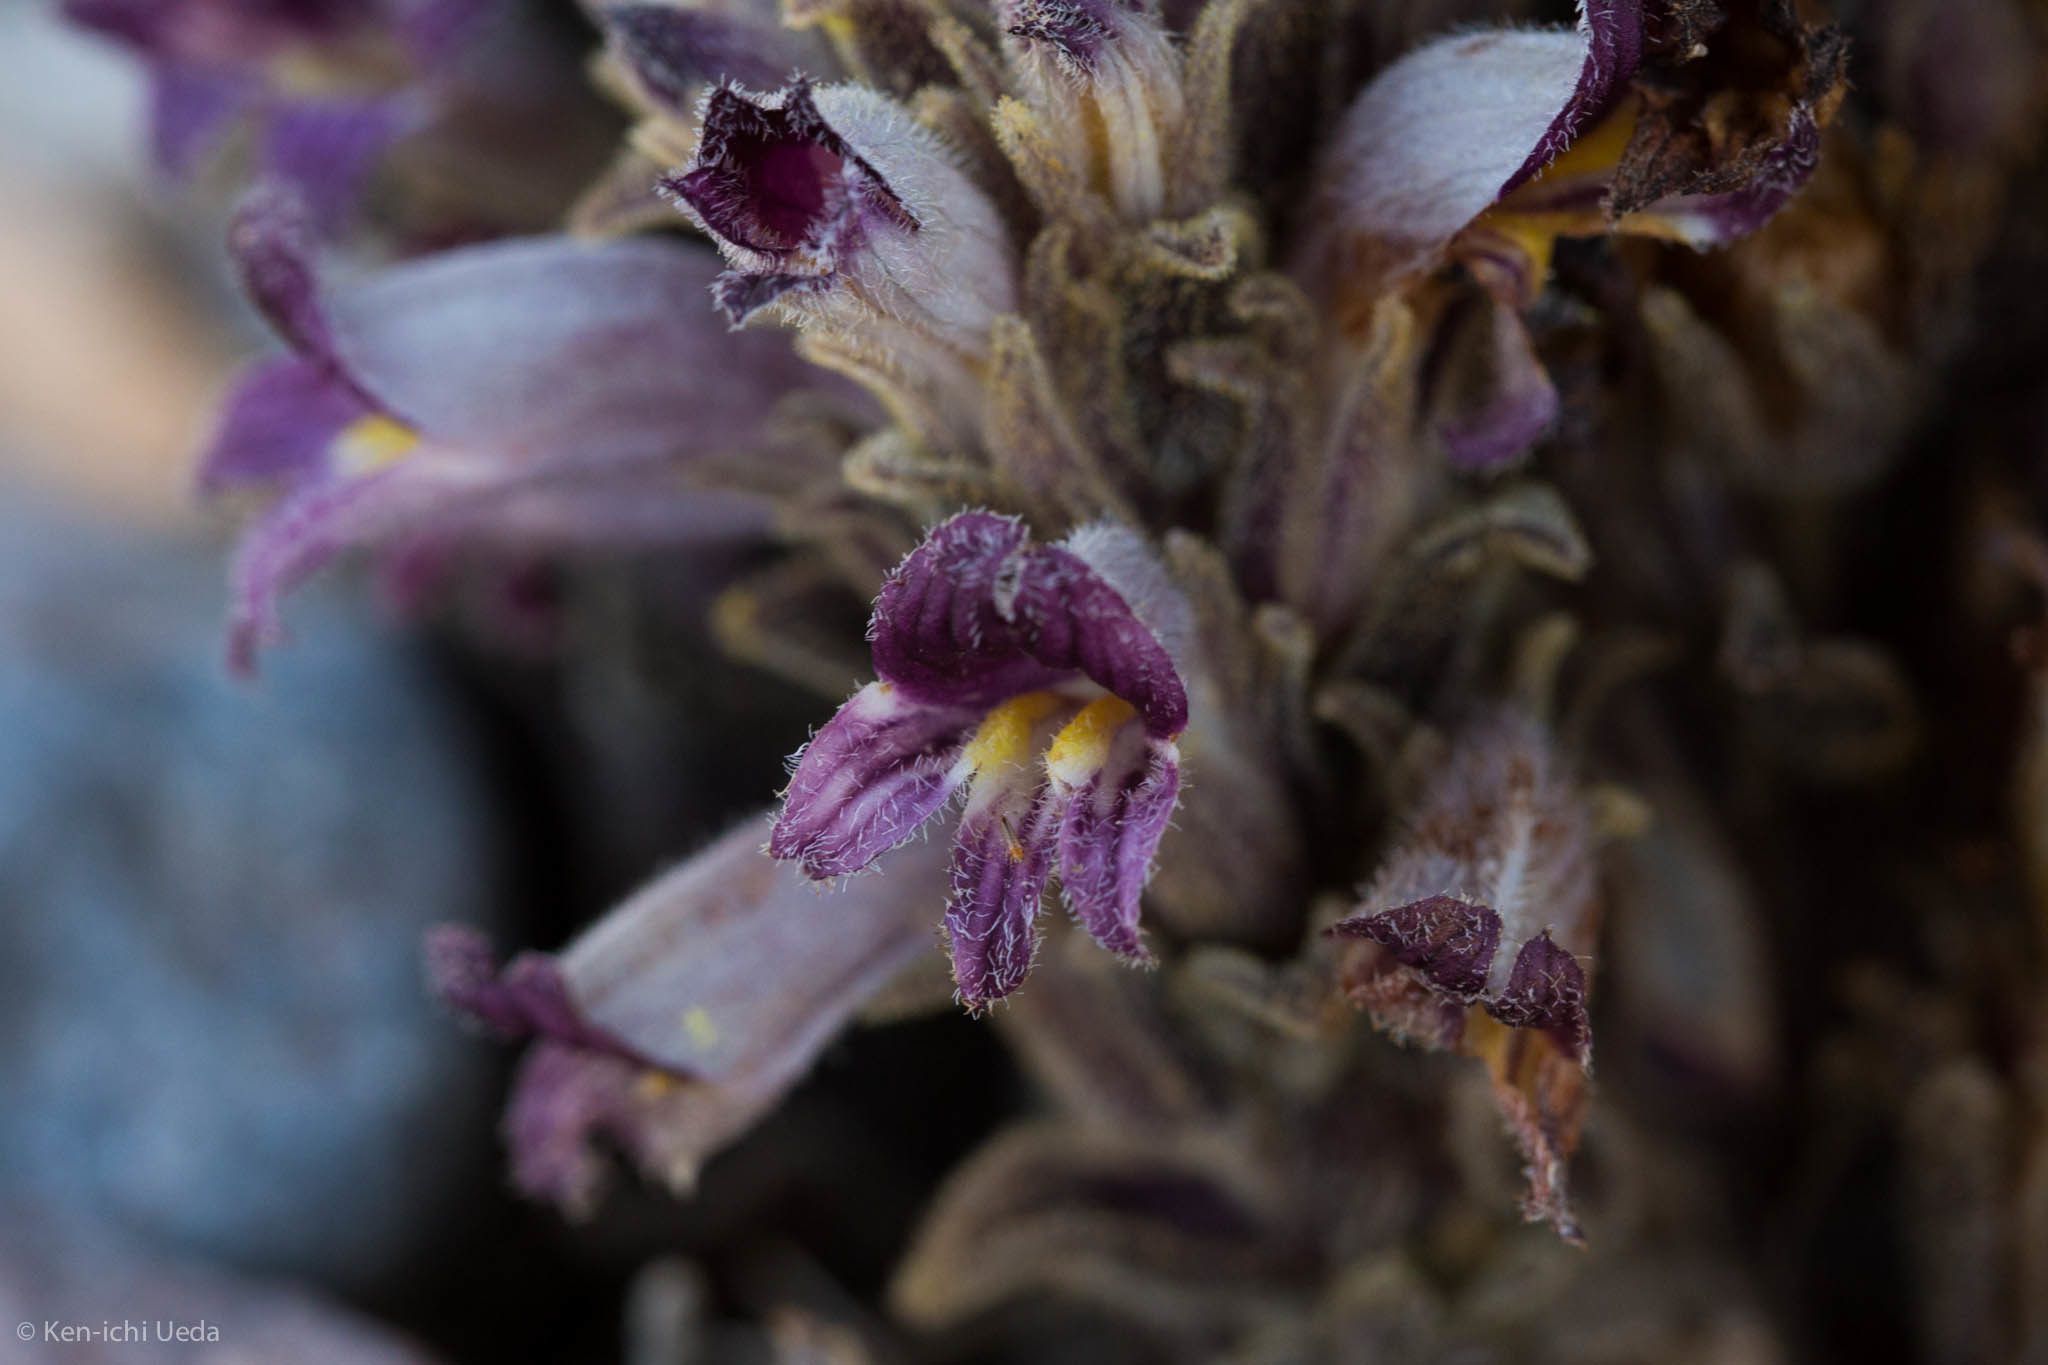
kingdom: Plantae
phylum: Tracheophyta
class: Magnoliopsida
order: Lamiales
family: Orobanchaceae
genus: Aphyllon
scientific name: Aphyllon cooperi
